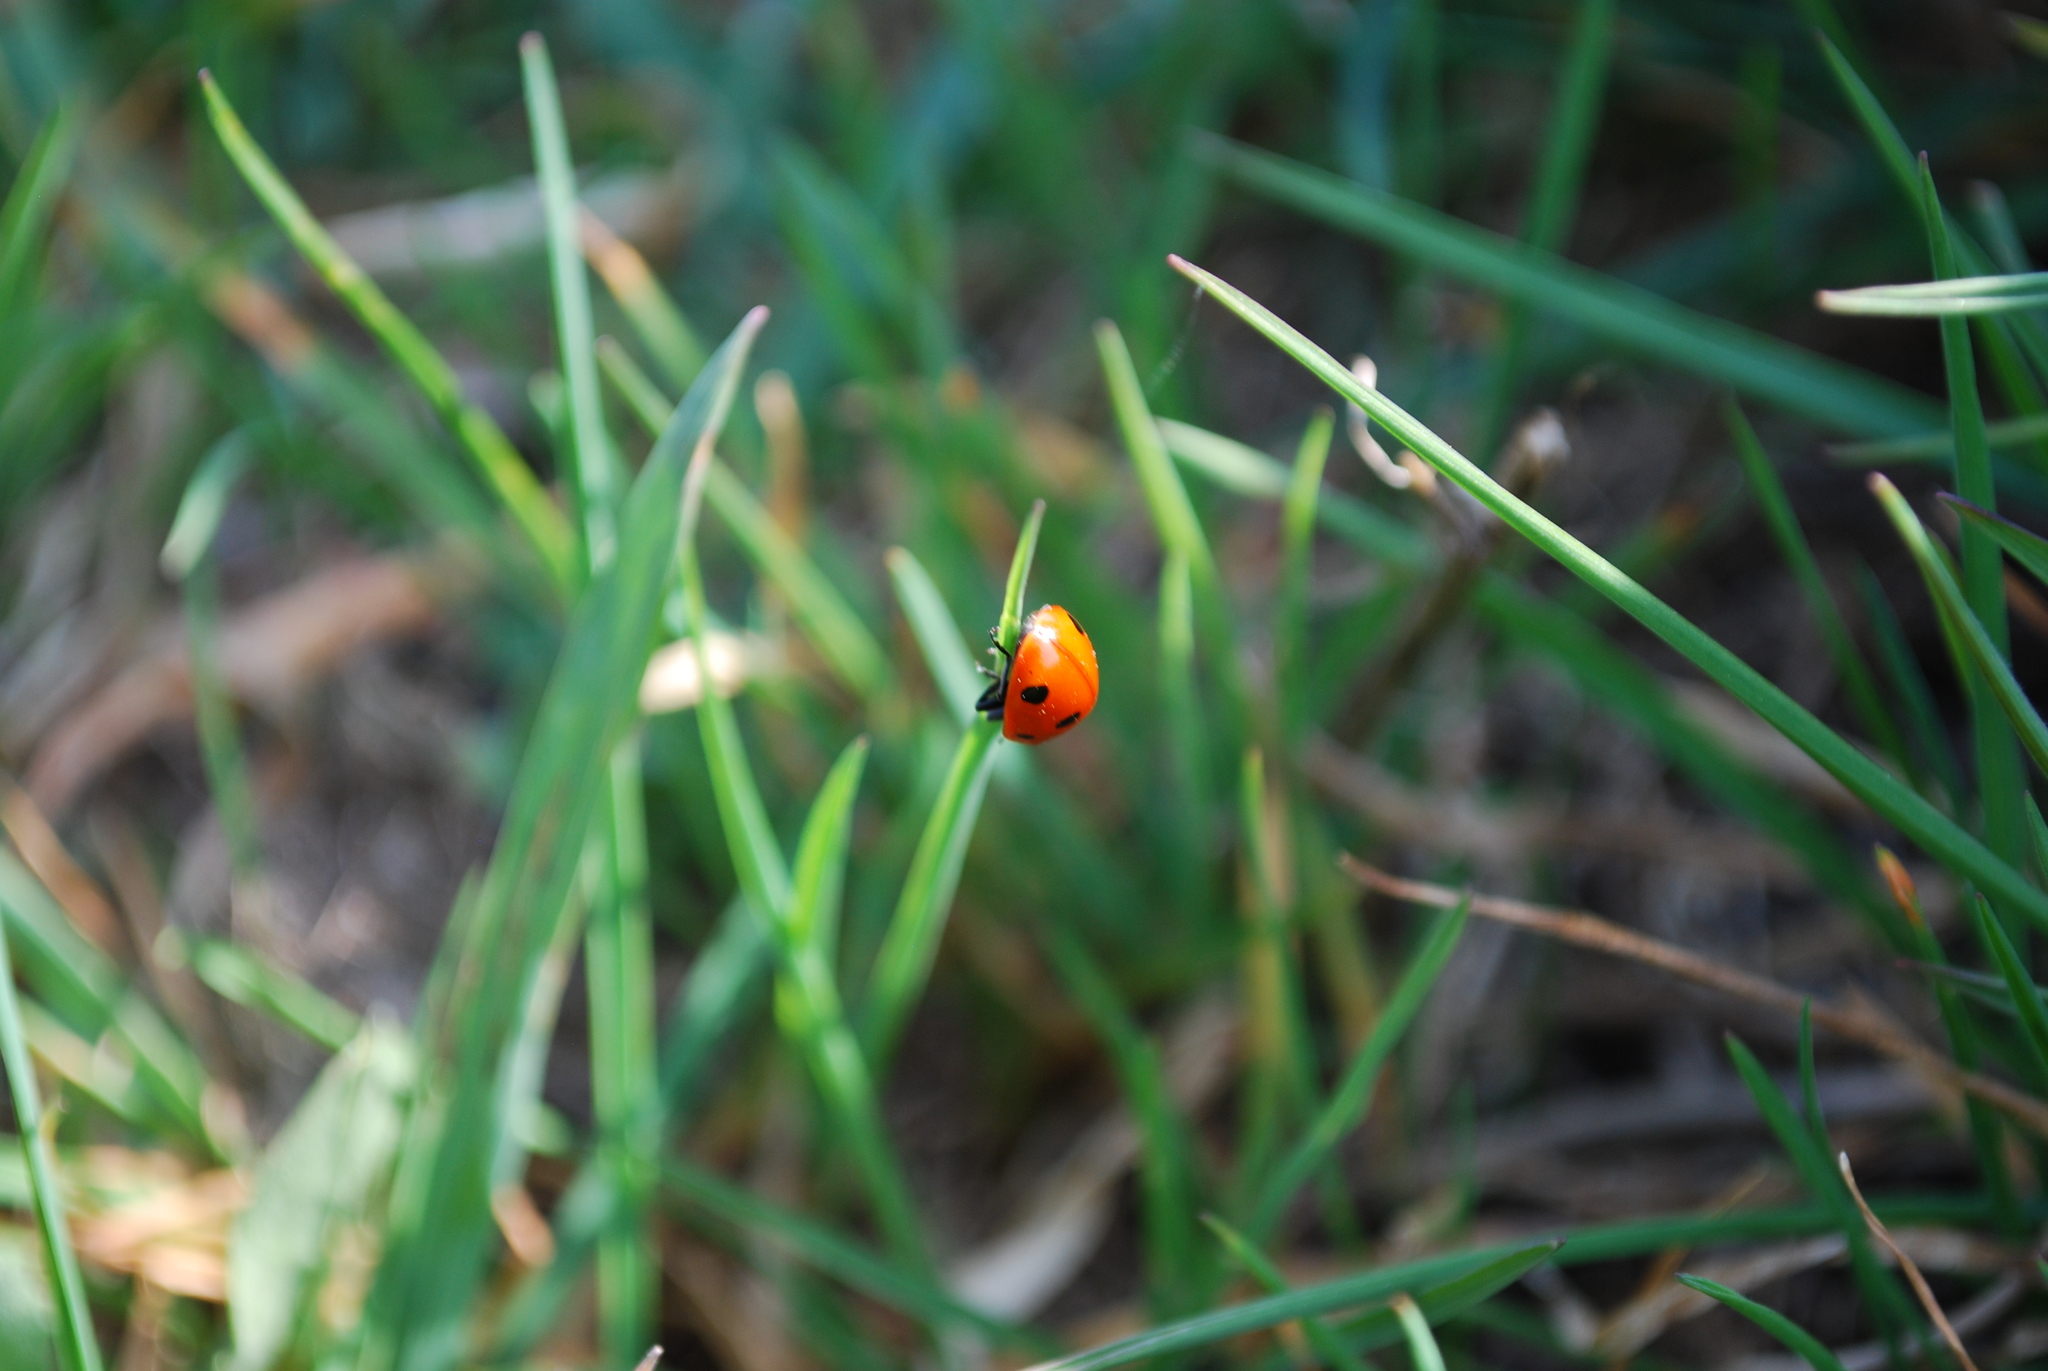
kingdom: Animalia
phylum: Arthropoda
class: Insecta
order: Coleoptera
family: Coccinellidae
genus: Coccinella
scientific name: Coccinella septempunctata
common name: Sevenspotted lady beetle
